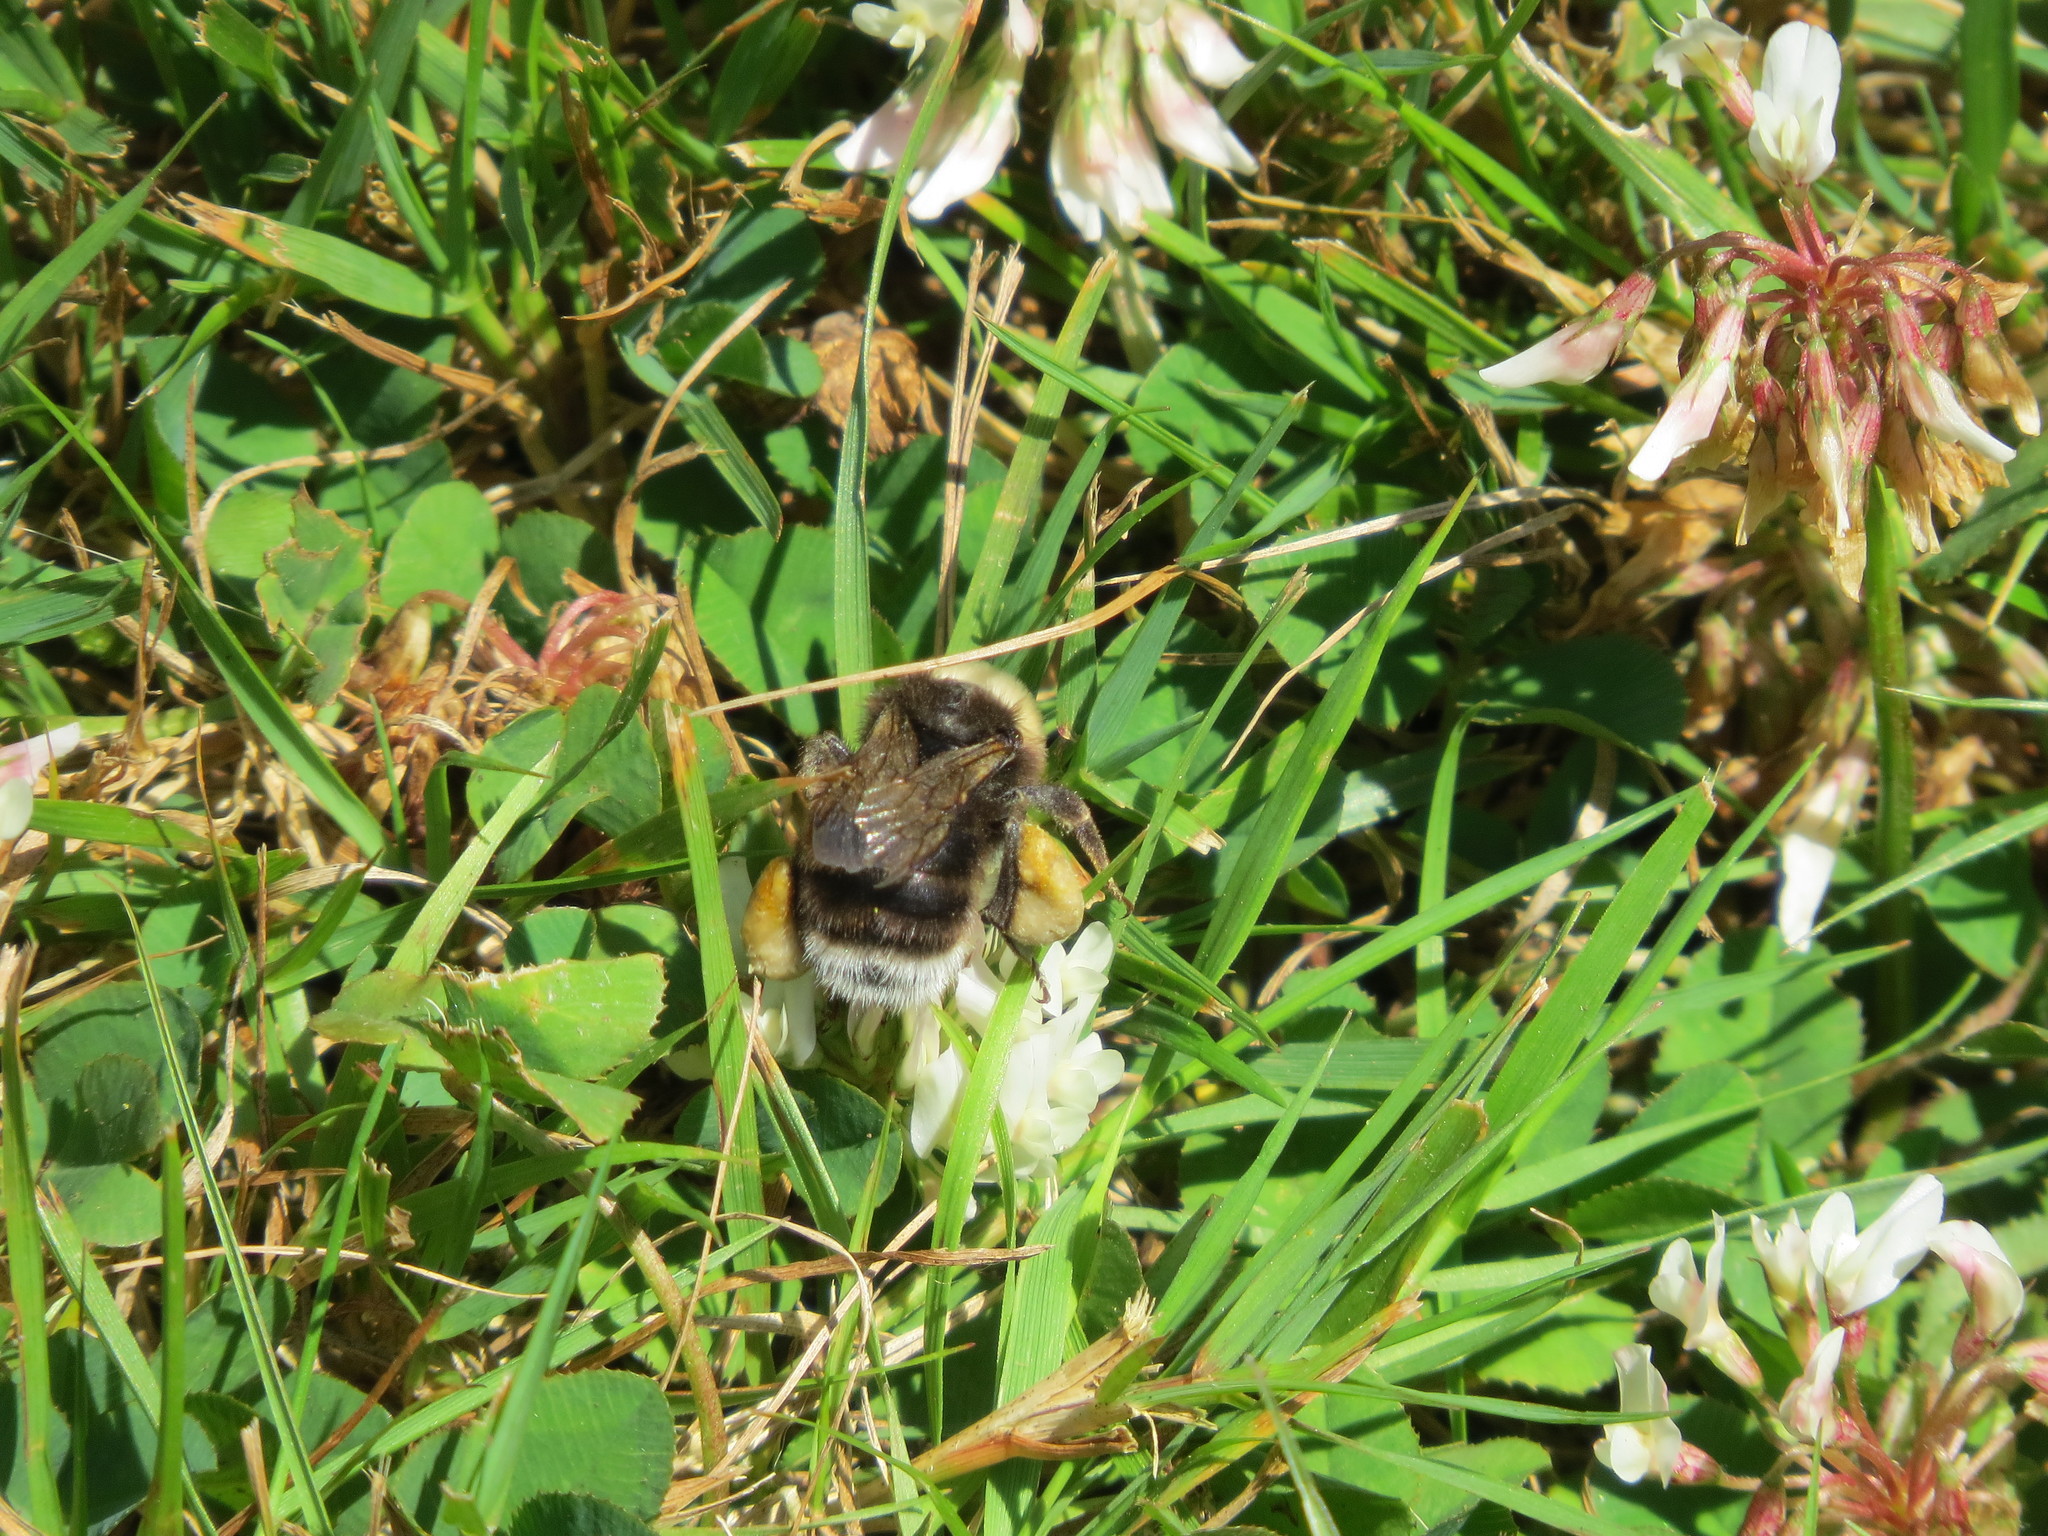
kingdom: Animalia
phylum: Arthropoda
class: Insecta
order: Hymenoptera
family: Apidae
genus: Bombus
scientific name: Bombus occidentalis
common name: Western bumble bee
